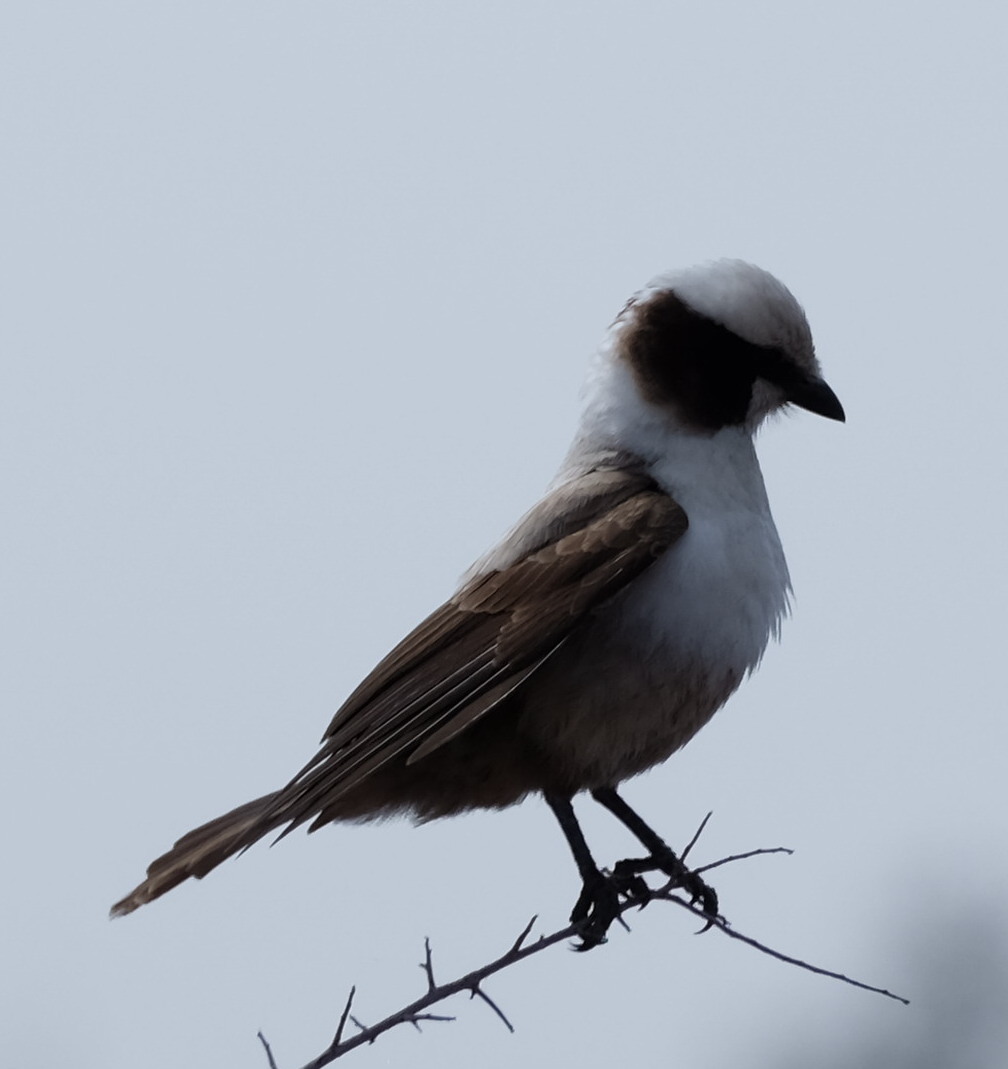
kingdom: Animalia
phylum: Chordata
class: Aves
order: Passeriformes
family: Laniidae
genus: Eurocephalus
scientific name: Eurocephalus anguitimens
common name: Southern white-crowned shrike
